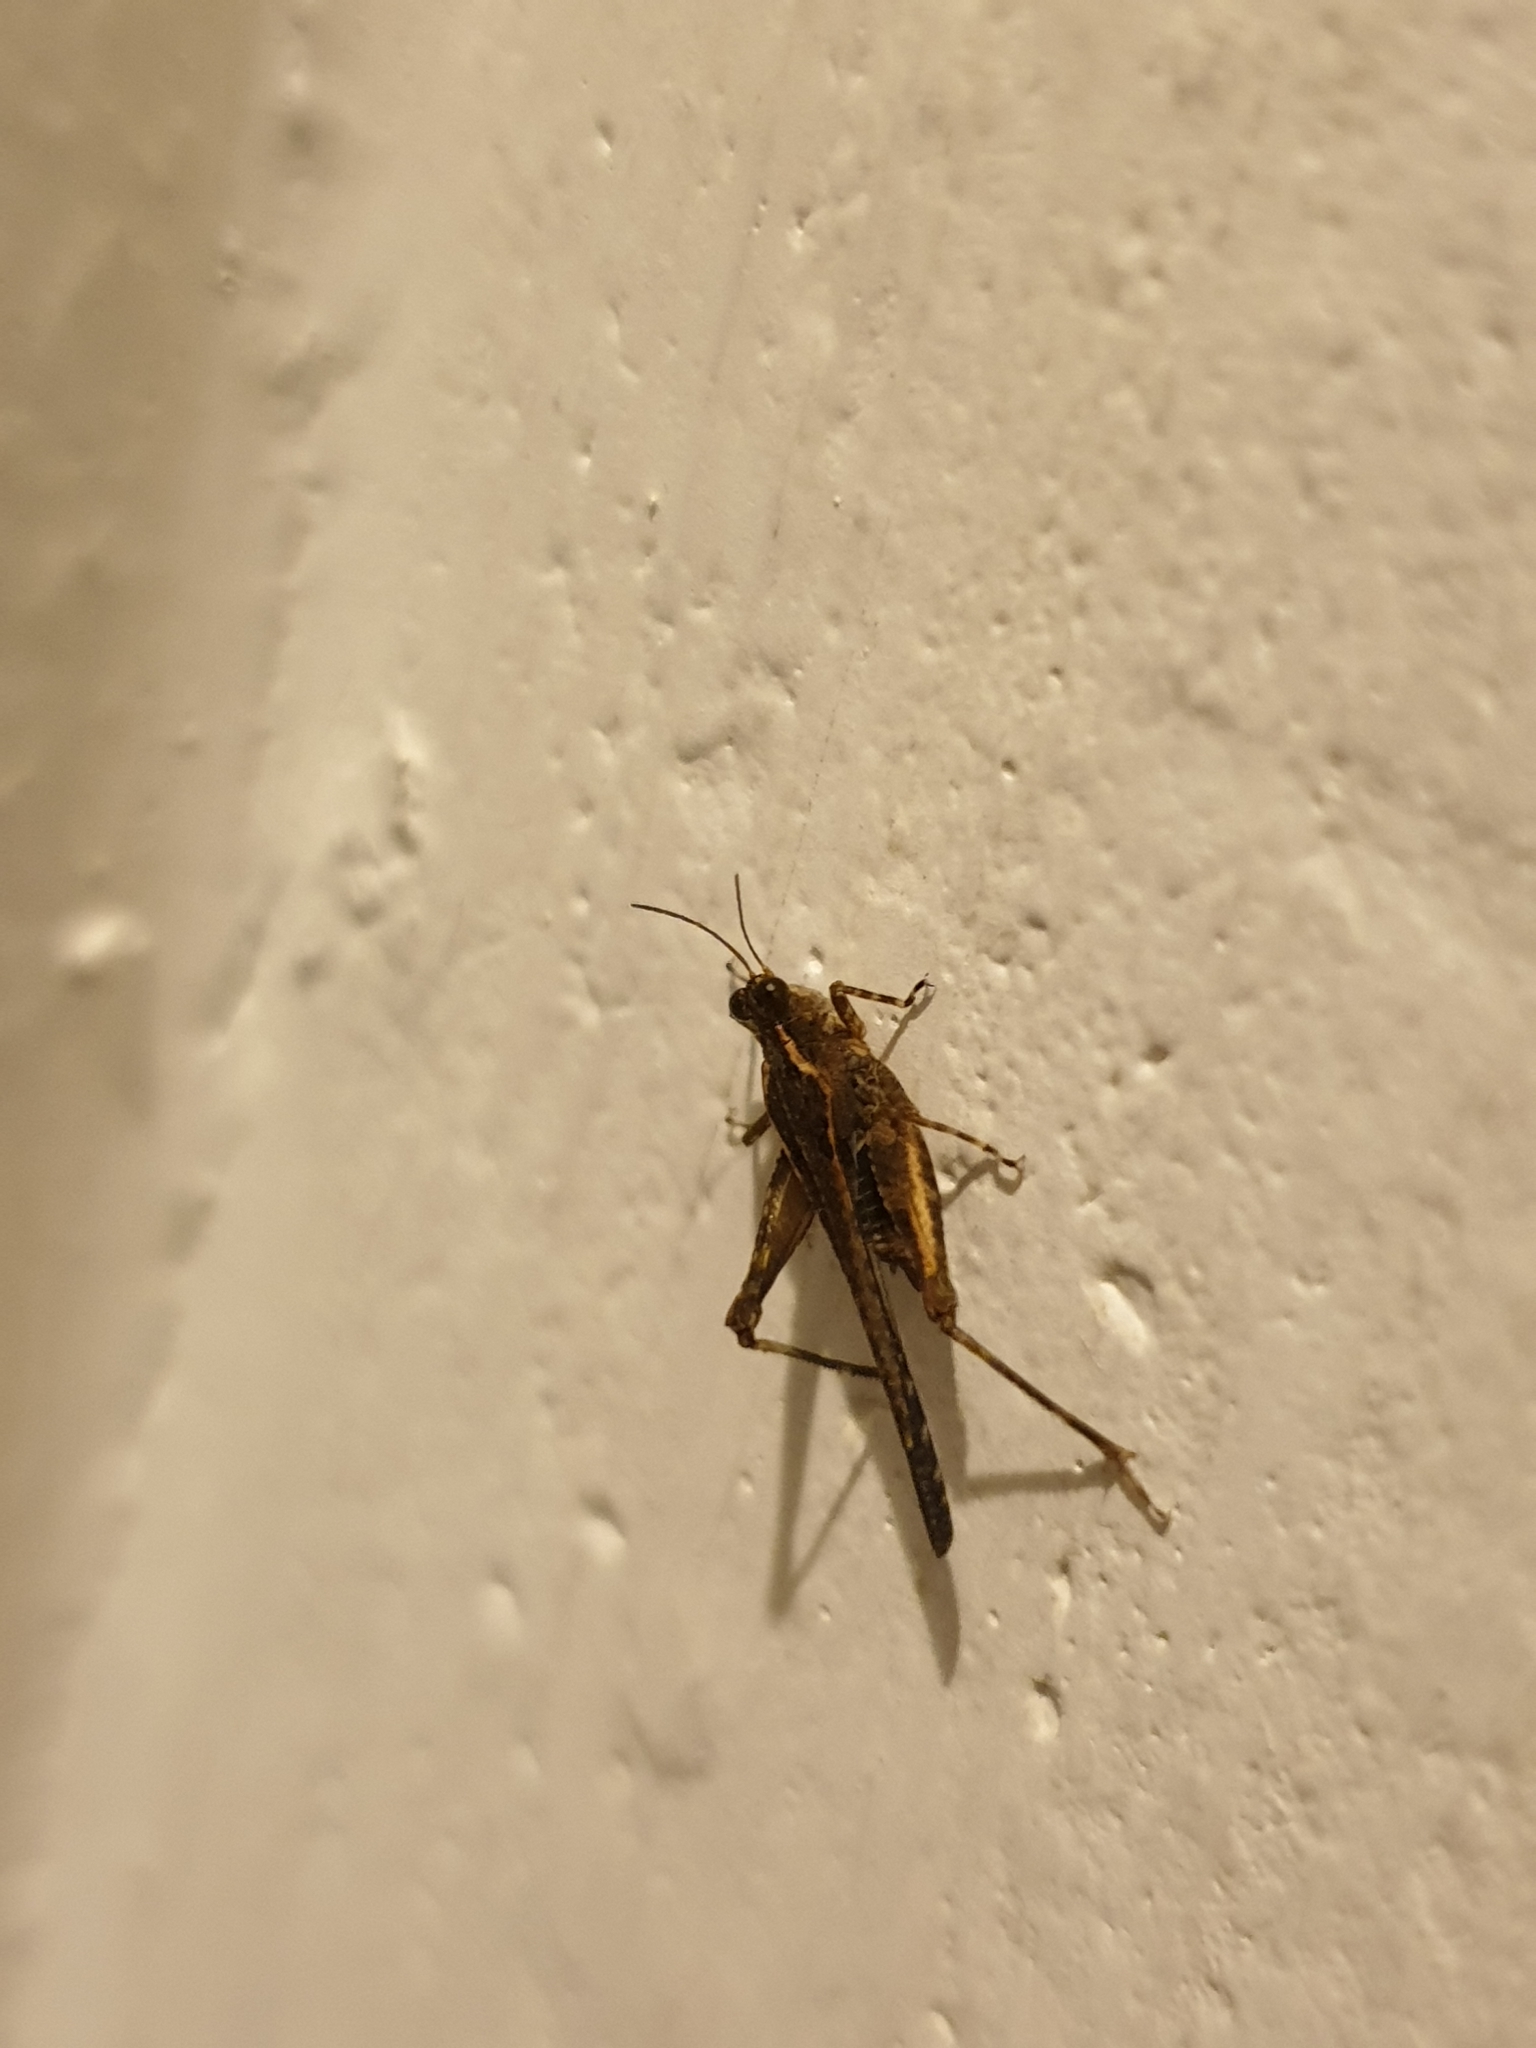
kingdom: Animalia
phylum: Arthropoda
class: Insecta
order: Orthoptera
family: Tetrigidae
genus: Euparatettix
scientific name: Euparatettix personatus
